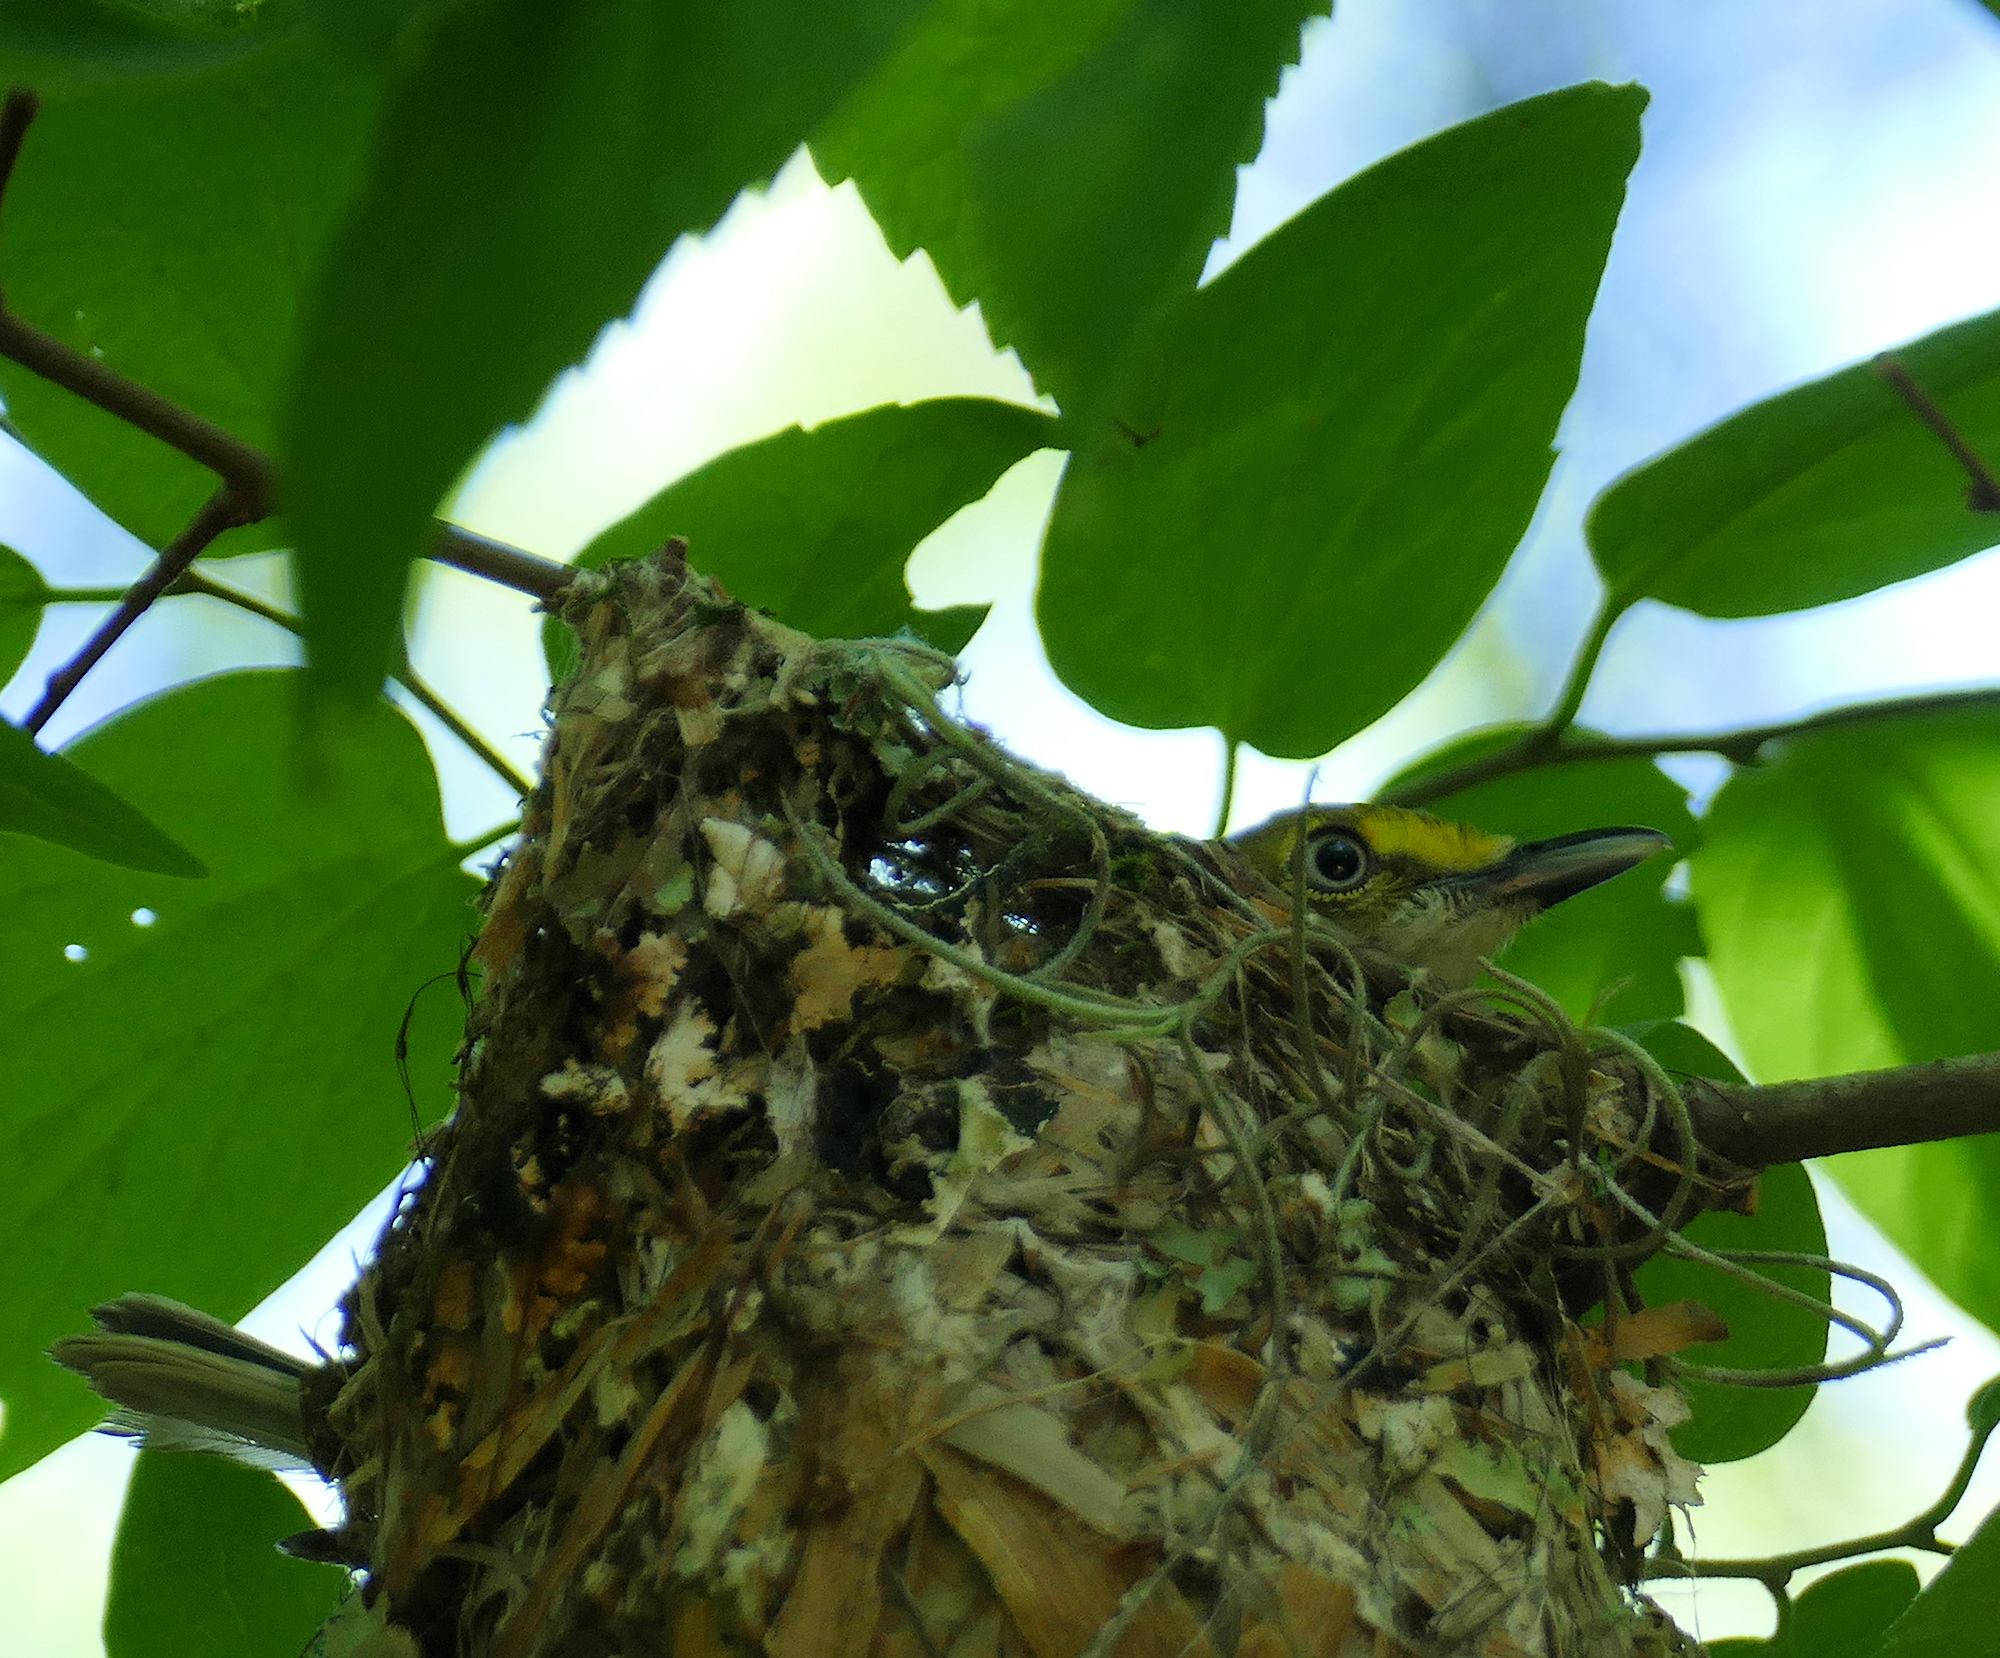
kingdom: Animalia
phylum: Chordata
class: Aves
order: Passeriformes
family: Vireonidae
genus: Vireo
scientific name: Vireo griseus
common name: White-eyed vireo
